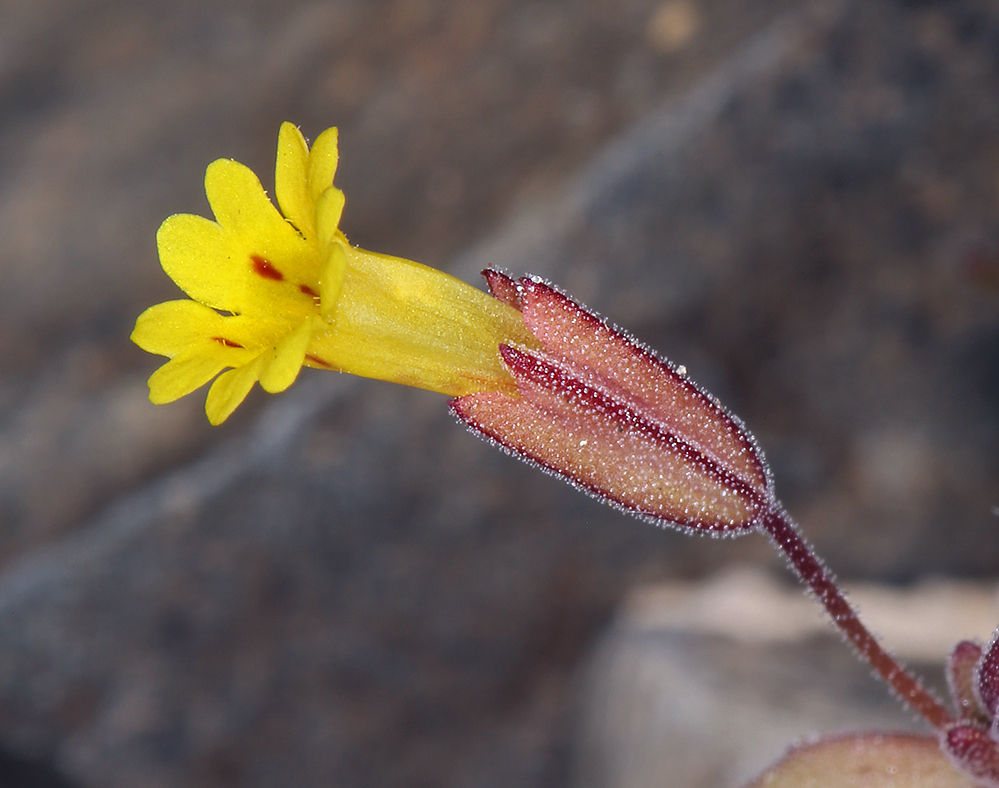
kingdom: Plantae
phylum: Tracheophyta
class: Magnoliopsida
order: Lamiales
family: Phrymaceae
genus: Erythranthe
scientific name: Erythranthe calcicola
